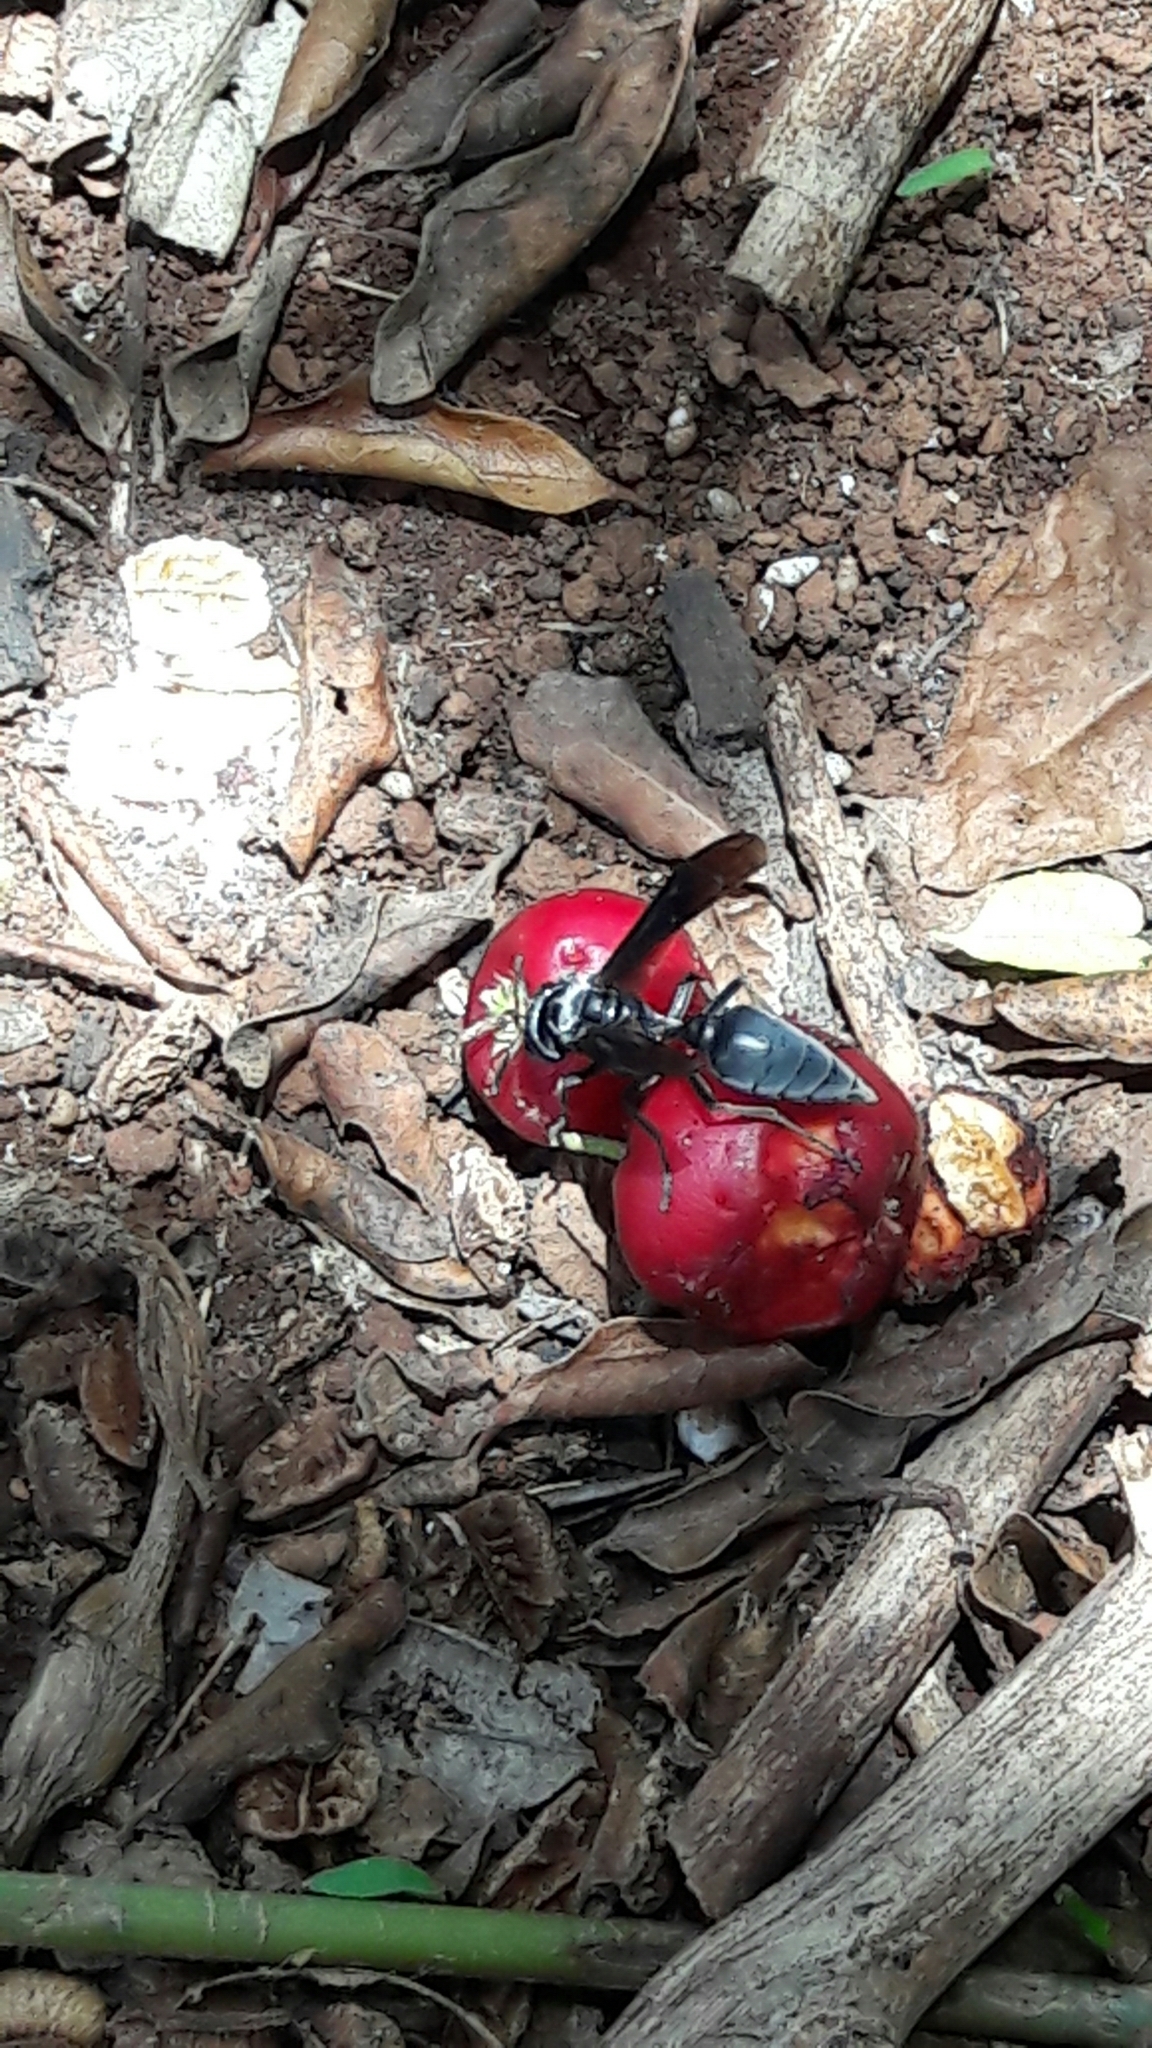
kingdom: Animalia
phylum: Arthropoda
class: Insecta
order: Hymenoptera
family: Vespidae
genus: Synoeca
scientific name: Synoeca surinama
